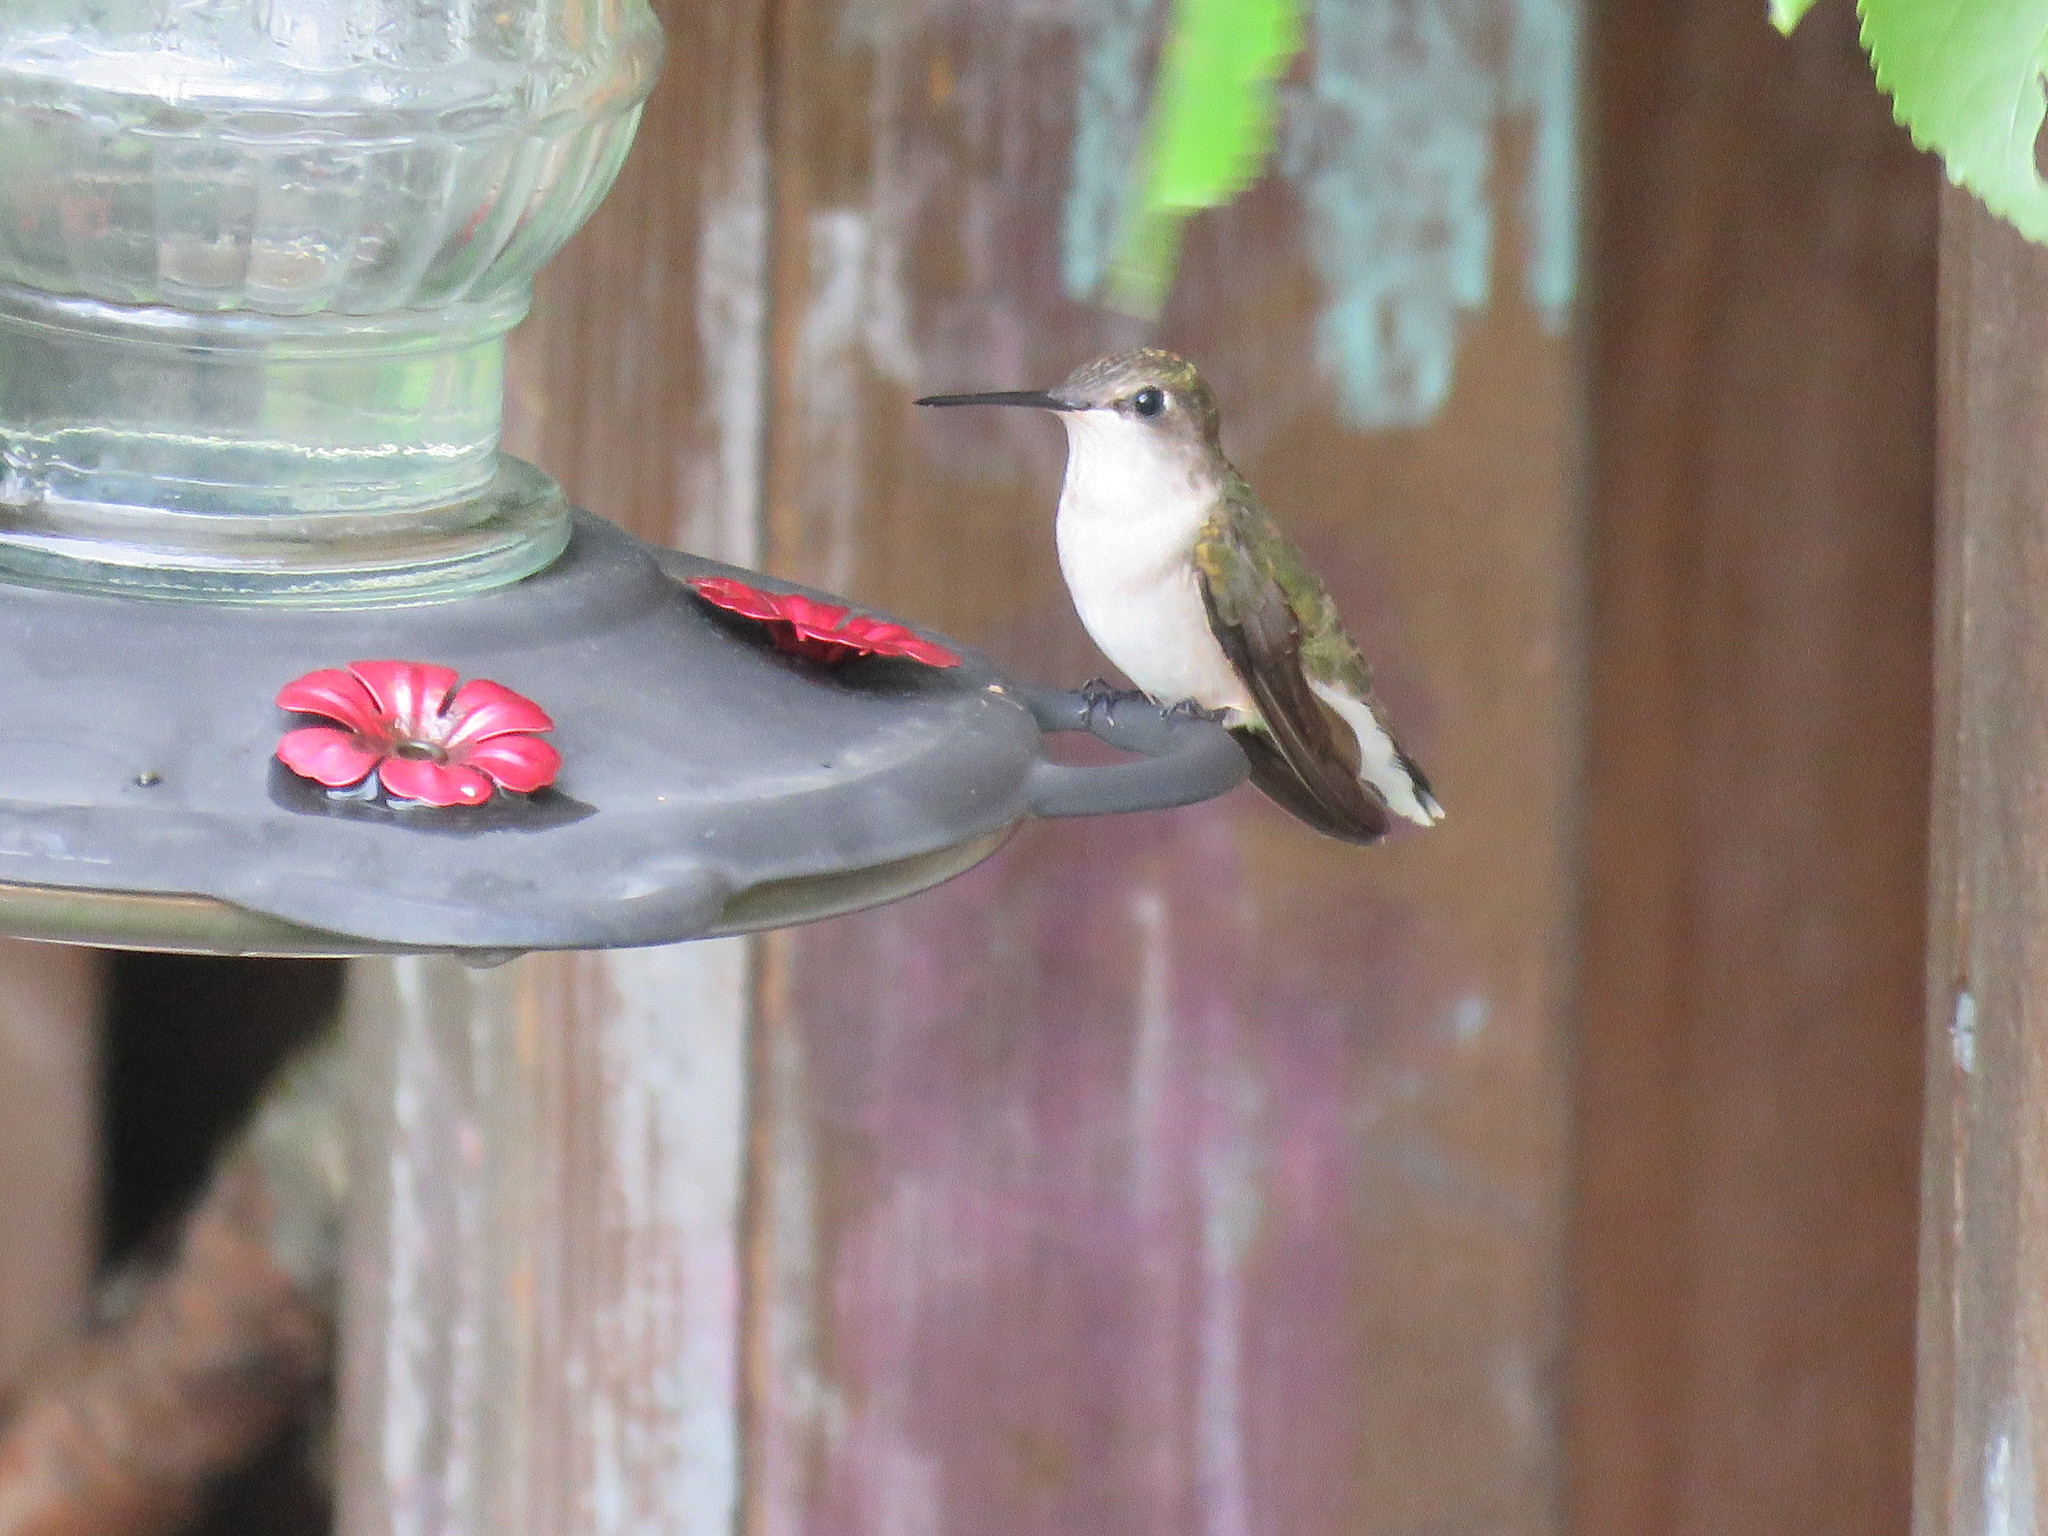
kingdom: Animalia
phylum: Chordata
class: Aves
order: Apodiformes
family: Trochilidae
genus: Archilochus
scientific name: Archilochus colubris
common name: Ruby-throated hummingbird
